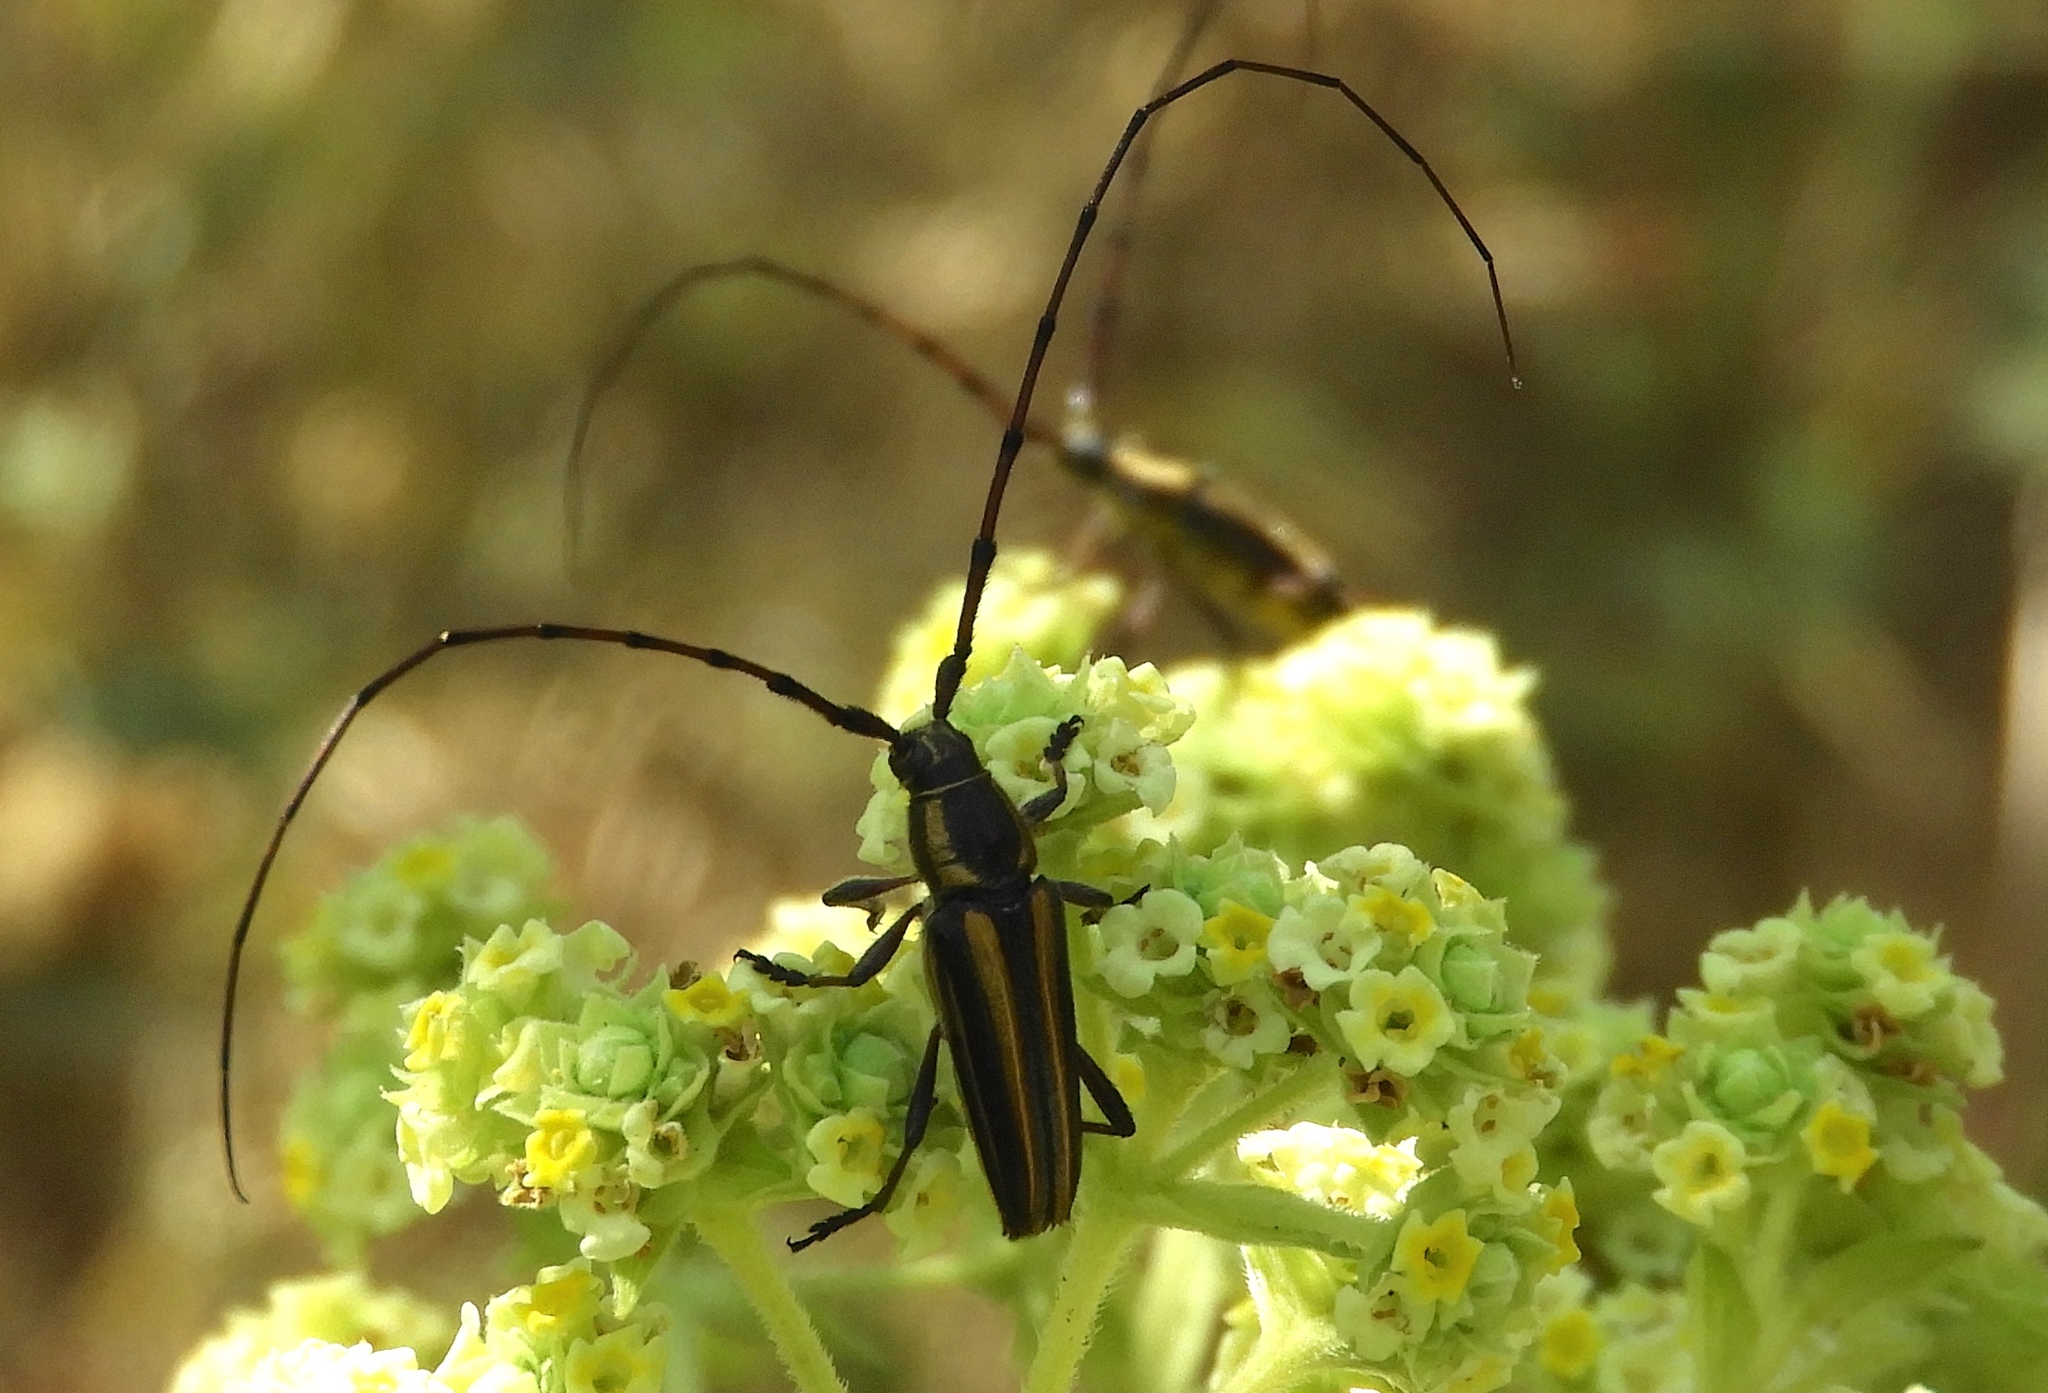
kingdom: Animalia
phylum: Arthropoda
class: Insecta
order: Coleoptera
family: Cerambycidae
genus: Sphaenothecus
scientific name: Sphaenothecus maccartyi
